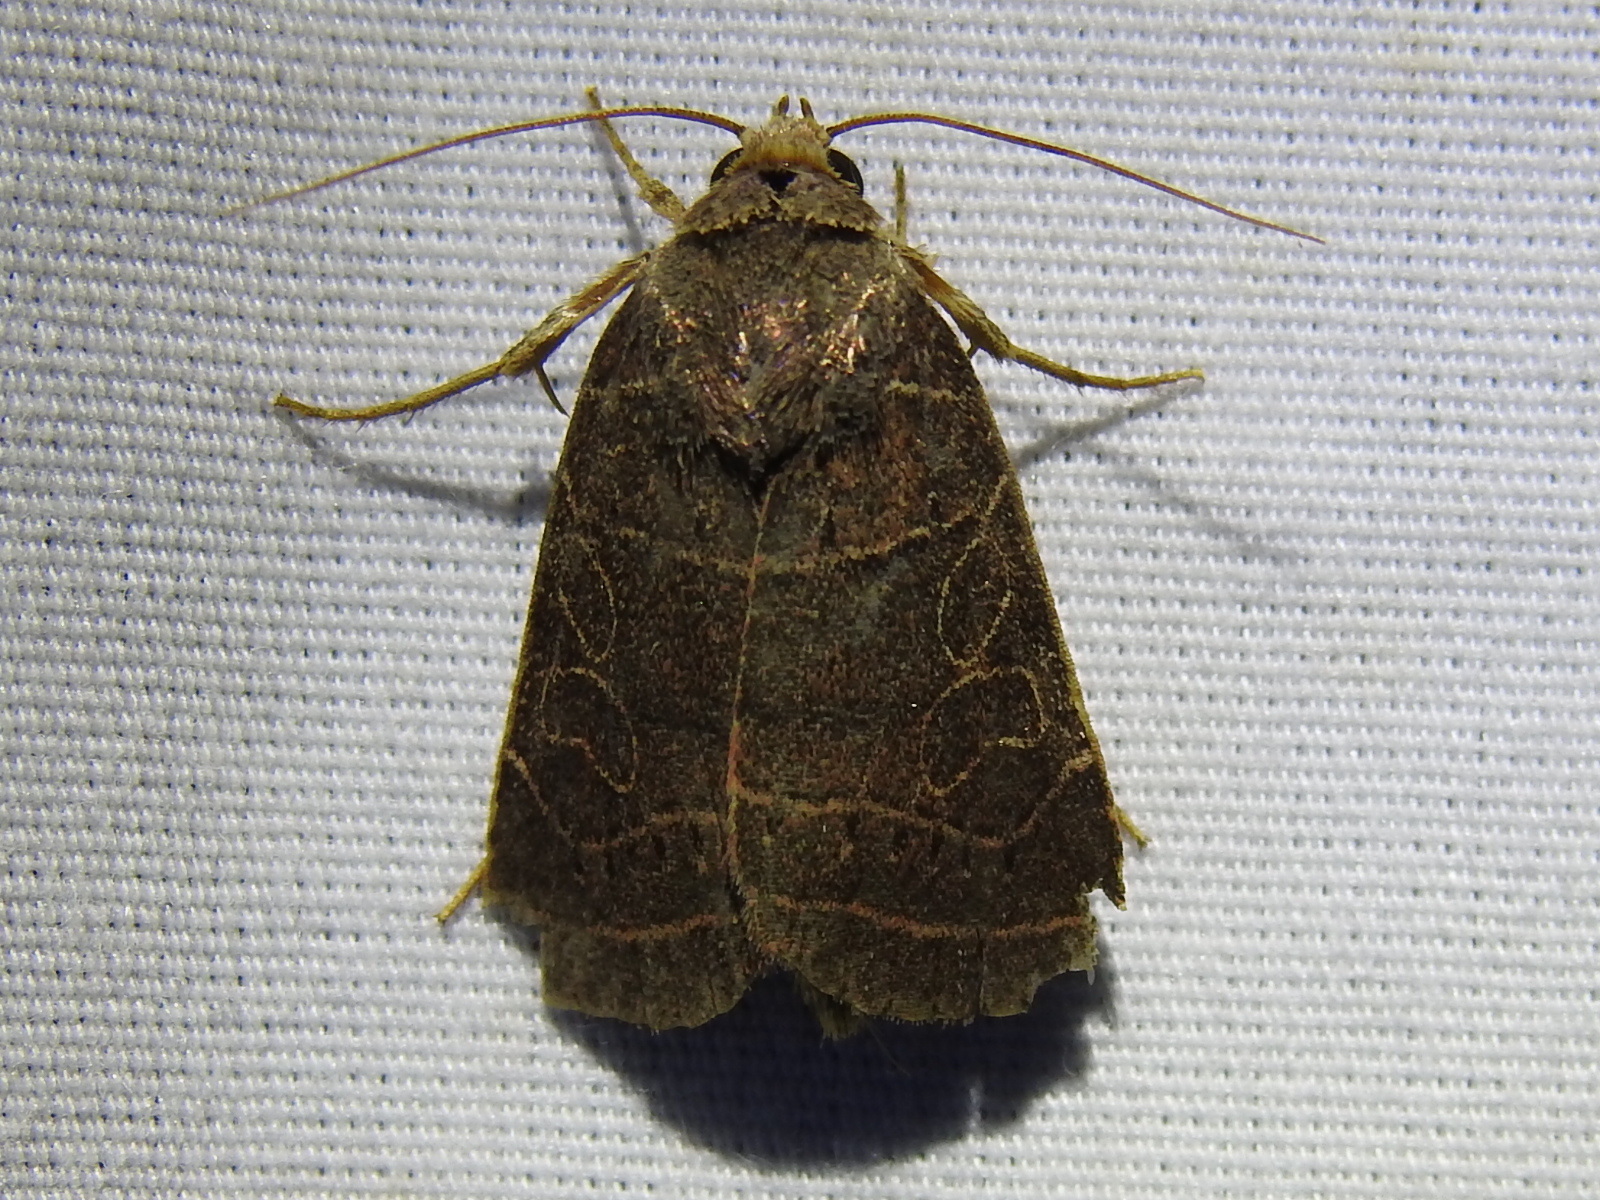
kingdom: Animalia
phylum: Arthropoda
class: Insecta
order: Lepidoptera
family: Noctuidae
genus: Orthodes
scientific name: Orthodes majuscula
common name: Rustic quaker
